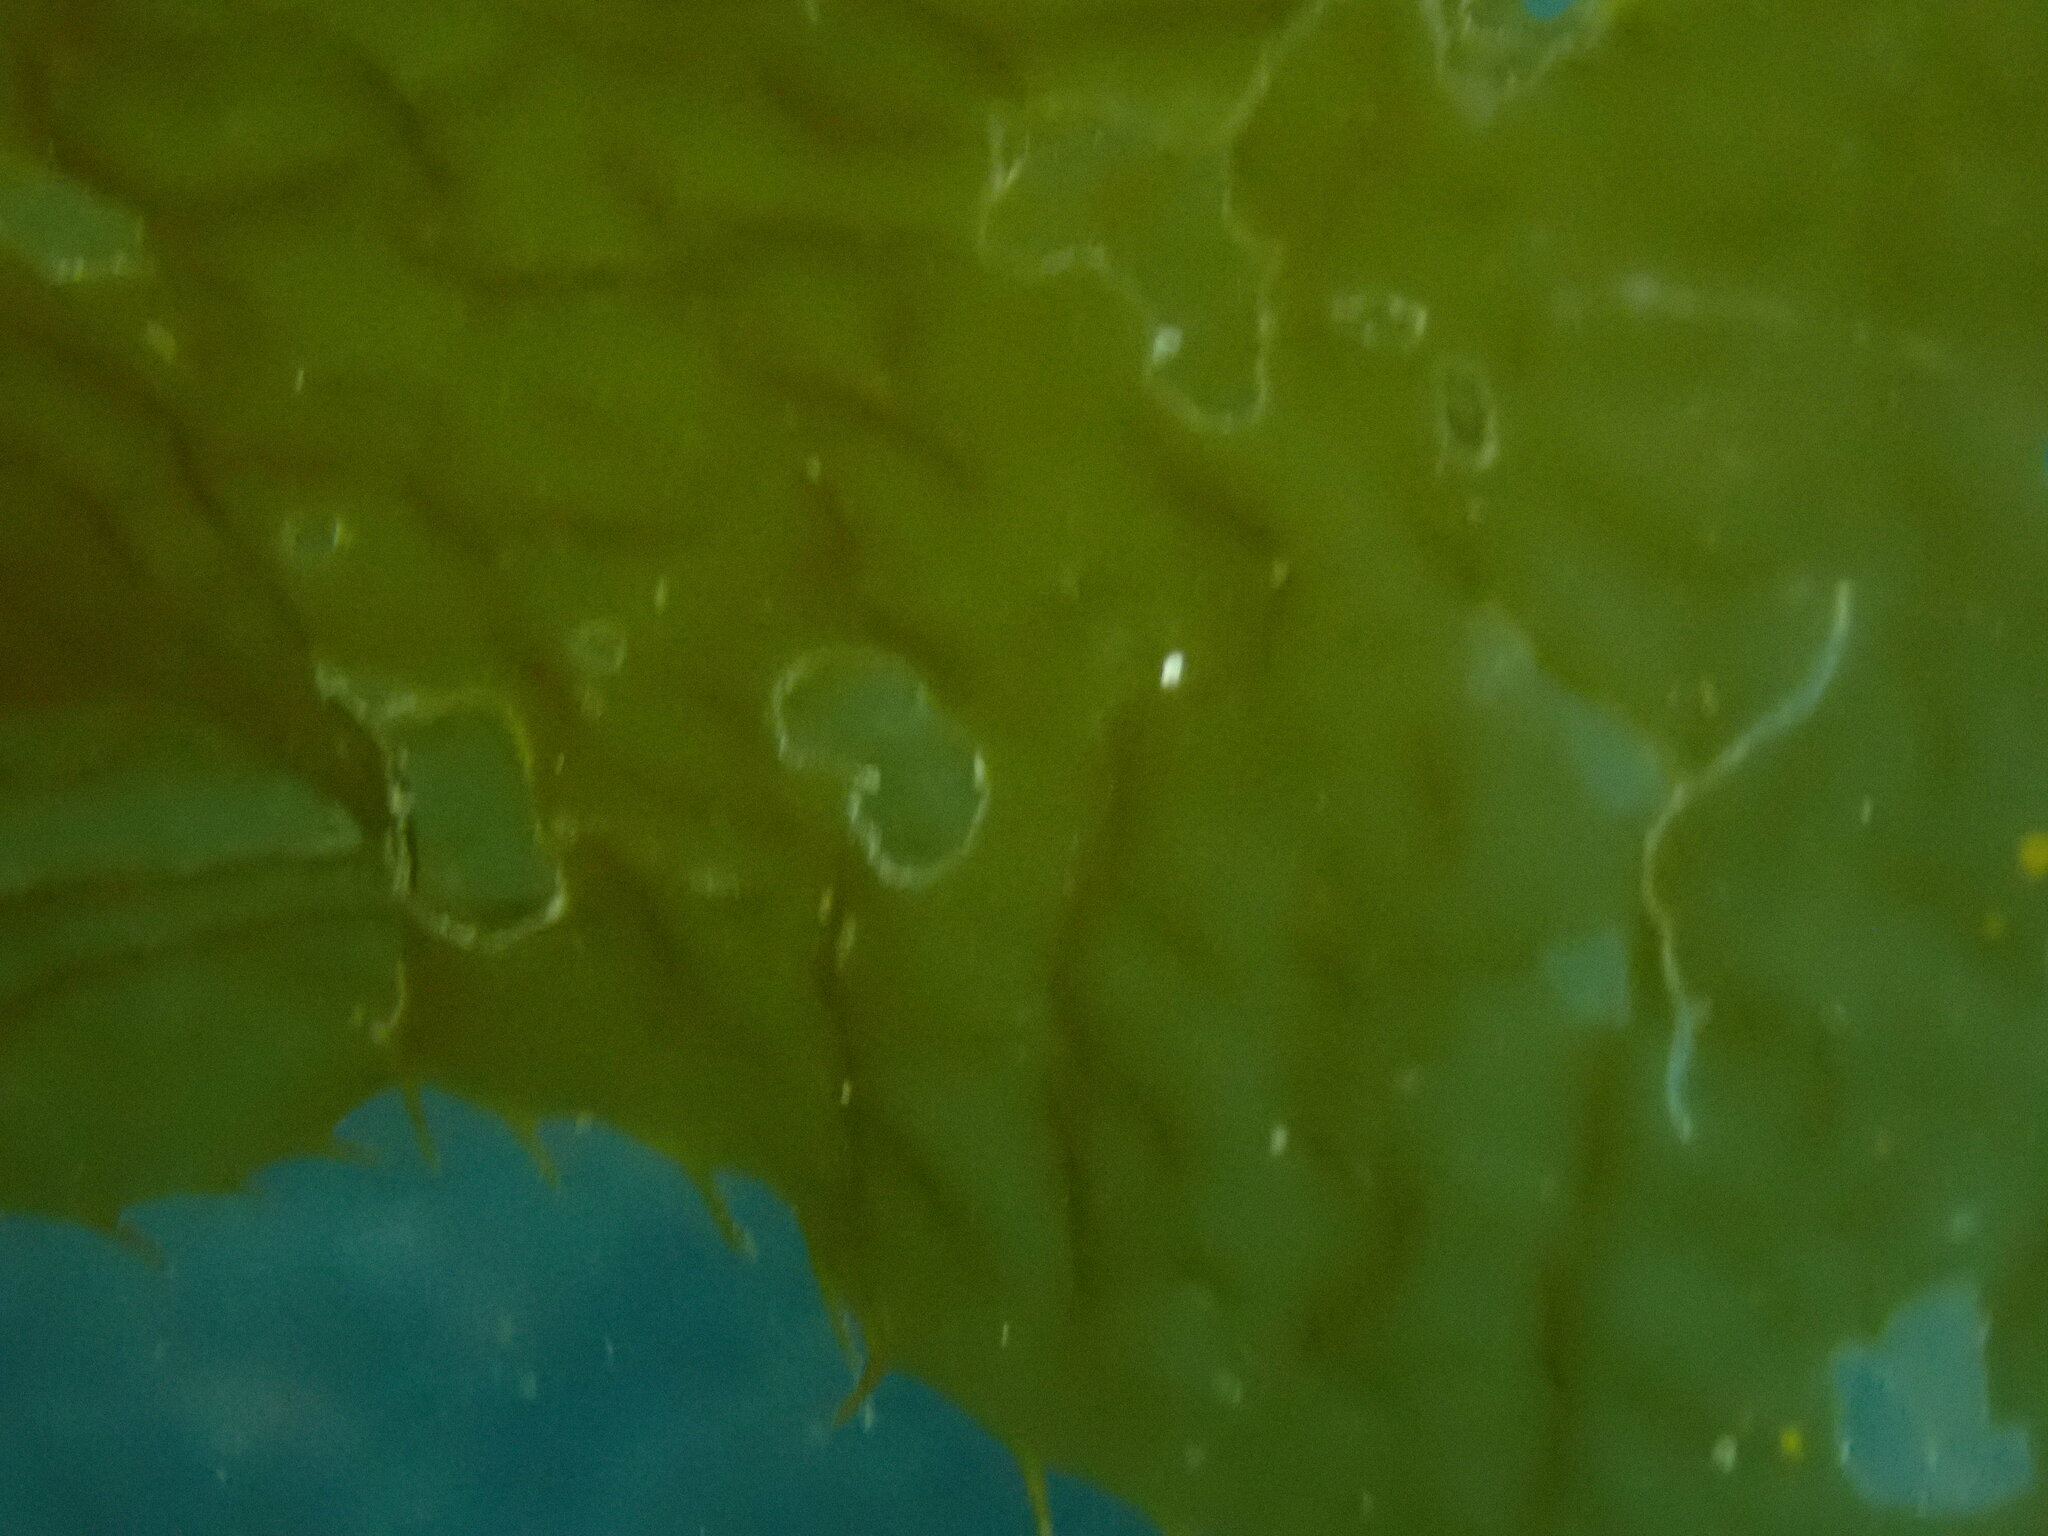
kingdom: Chromista
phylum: Ochrophyta
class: Phaeophyceae
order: Laminariales
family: Laminariaceae
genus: Macrocystis
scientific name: Macrocystis pyrifera
